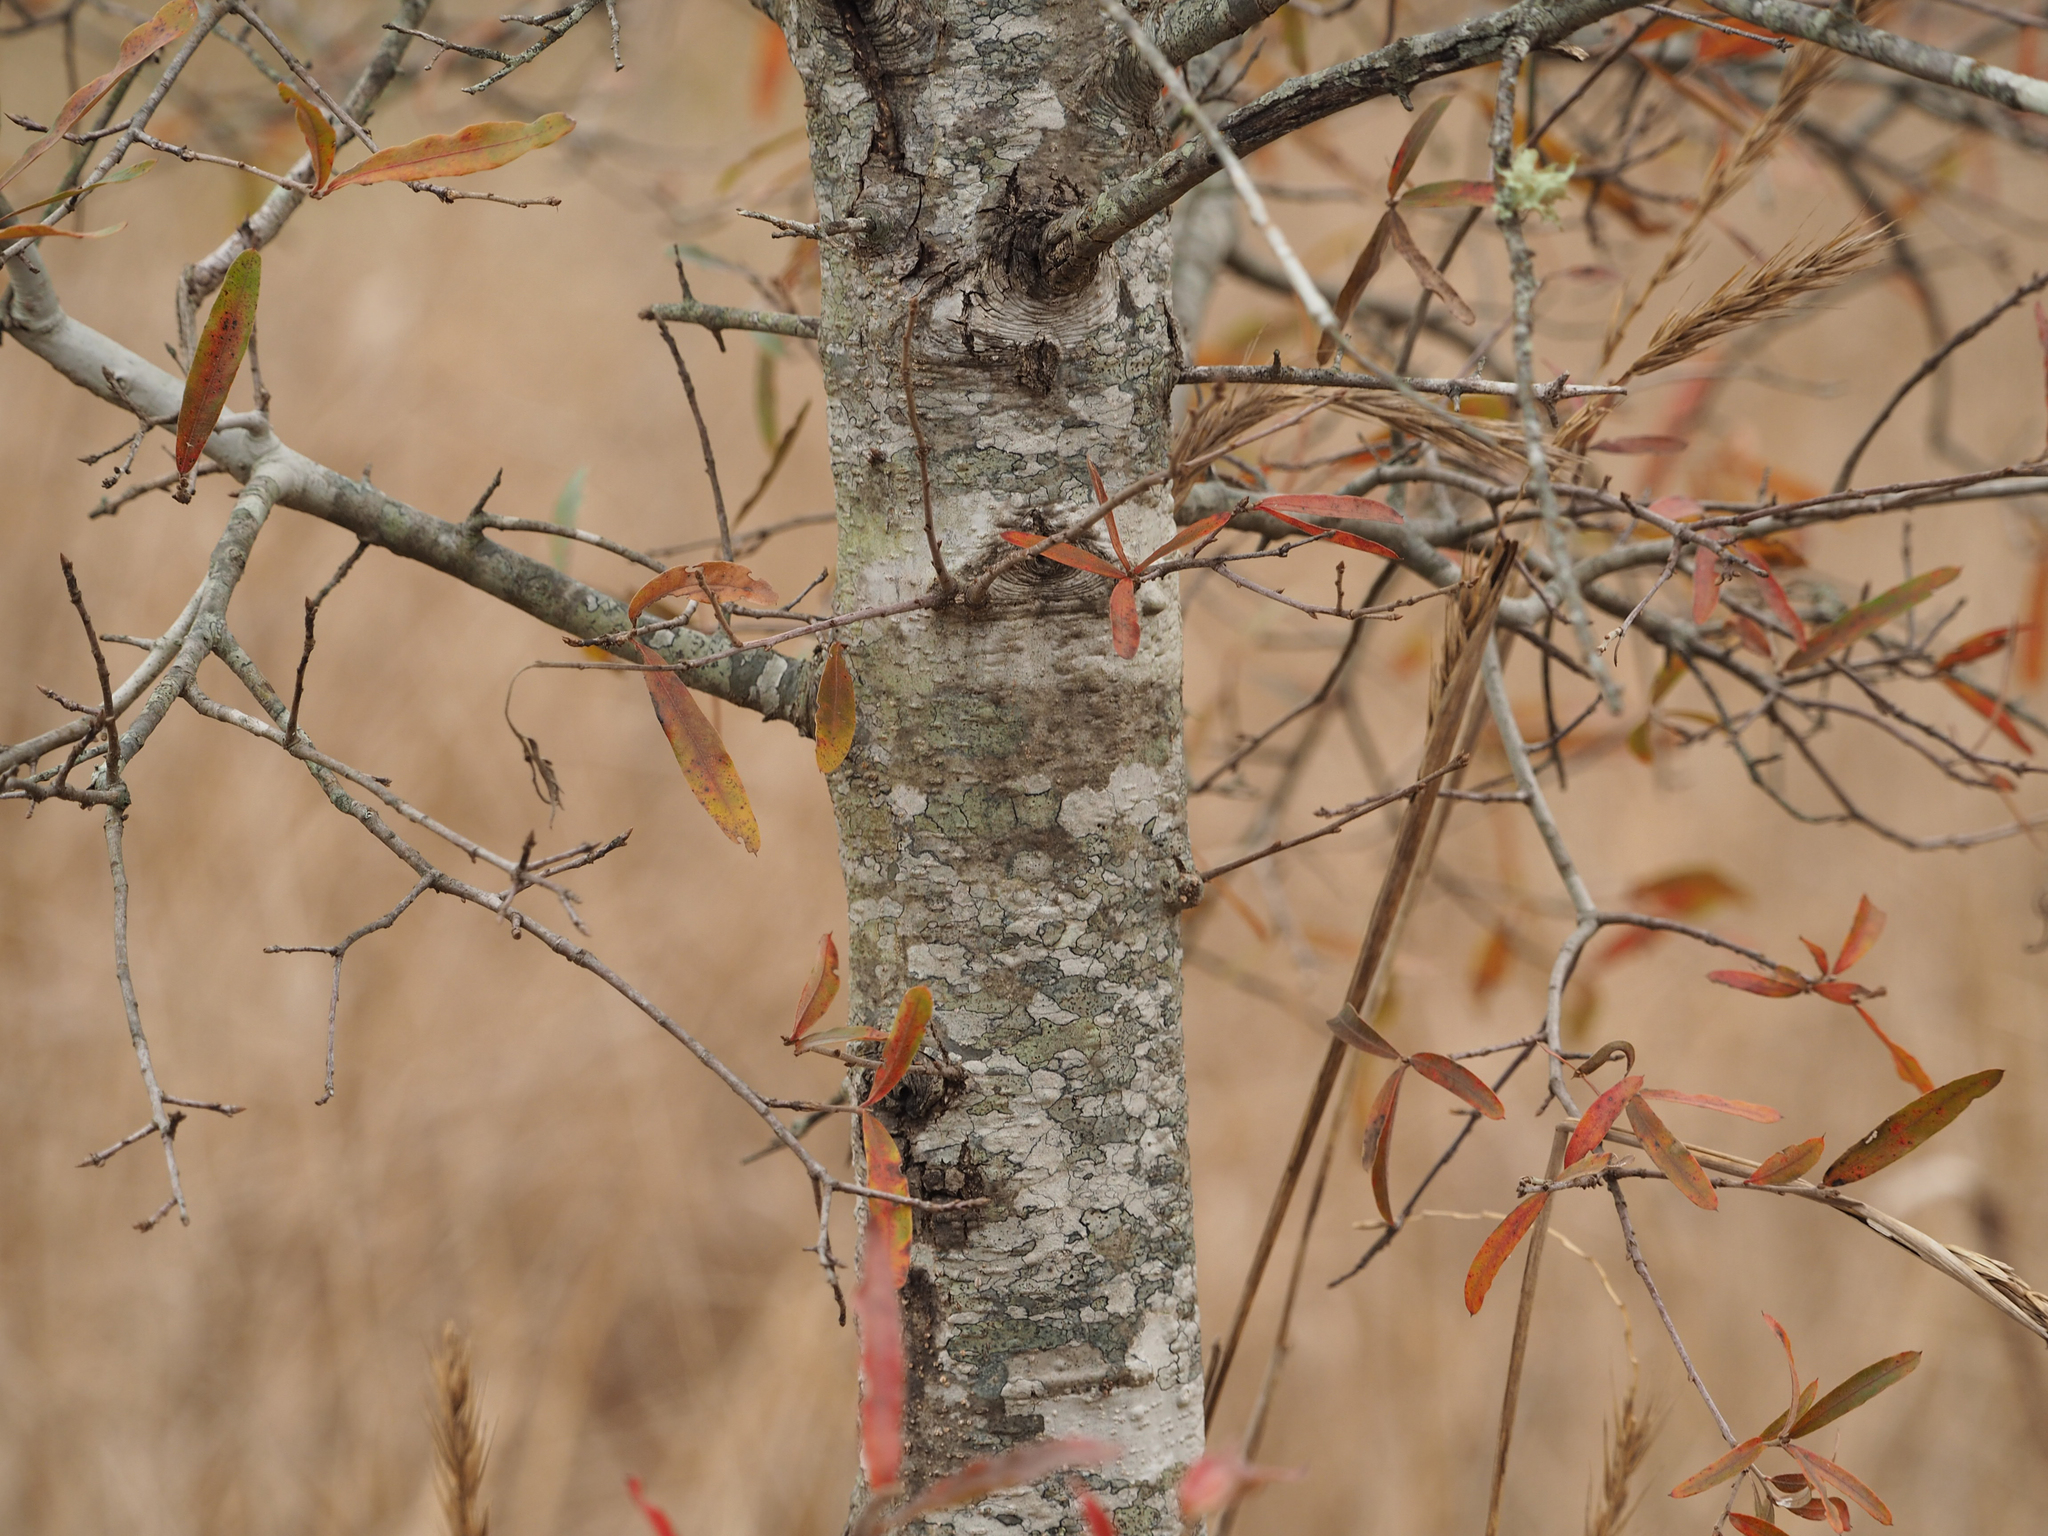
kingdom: Plantae
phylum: Tracheophyta
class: Magnoliopsida
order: Fagales
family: Fagaceae
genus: Quercus
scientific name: Quercus phellos
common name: Willow oak
